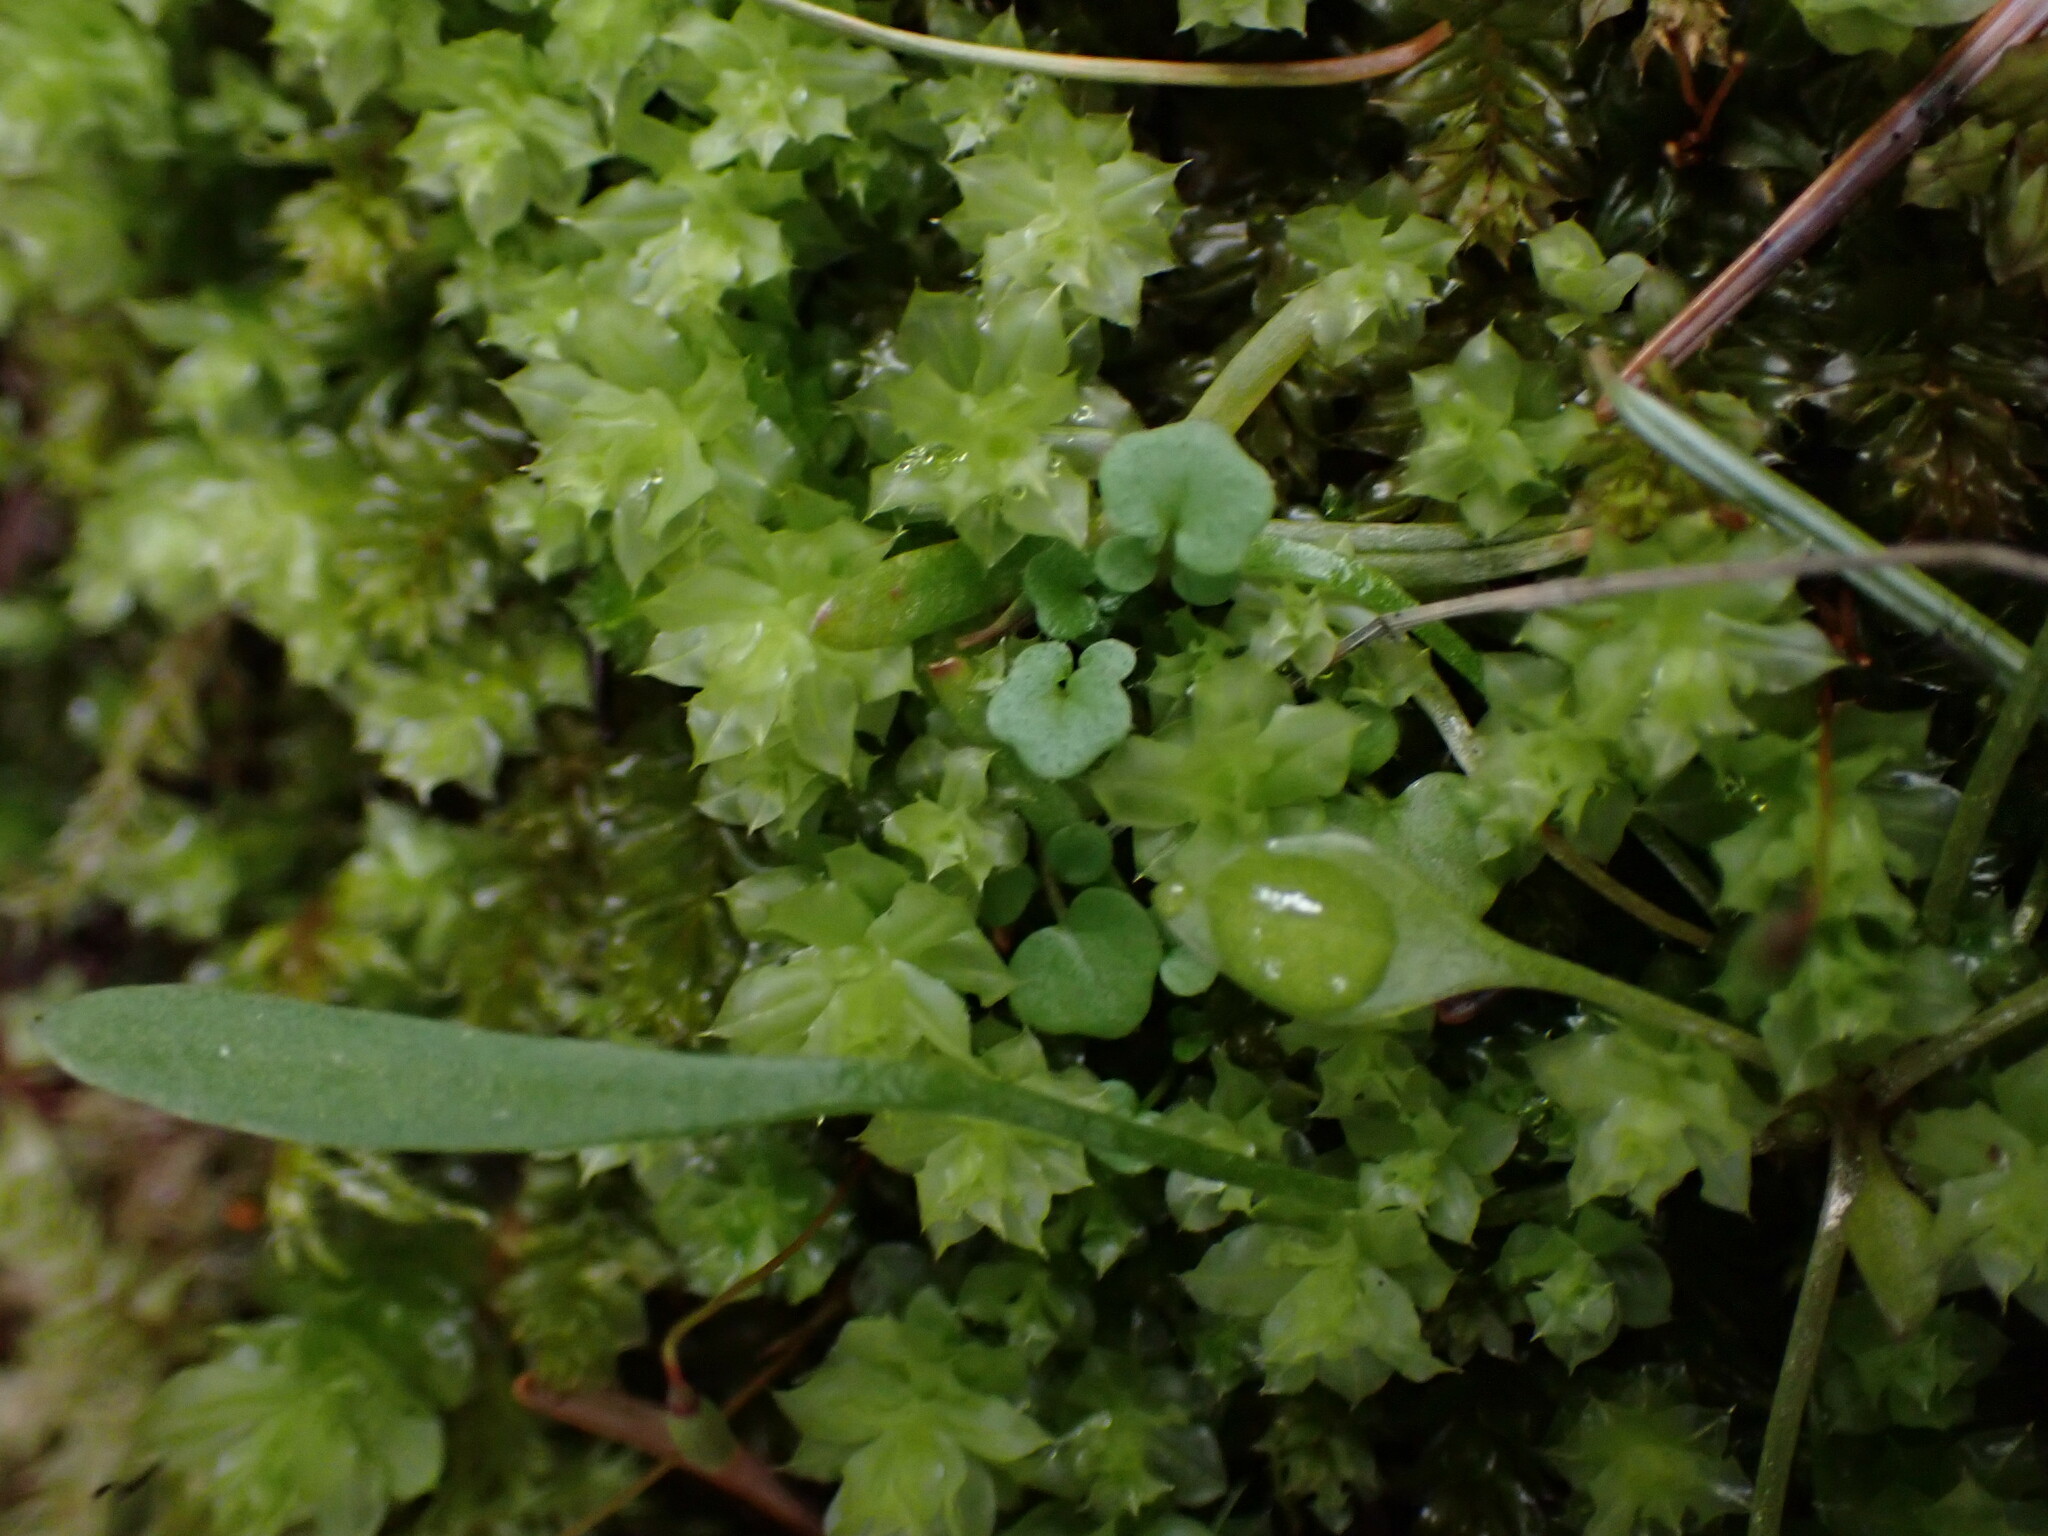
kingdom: Plantae
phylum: Bryophyta
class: Bryopsida
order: Bryales
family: Mniaceae
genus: Plagiomnium
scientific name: Plagiomnium venustum
